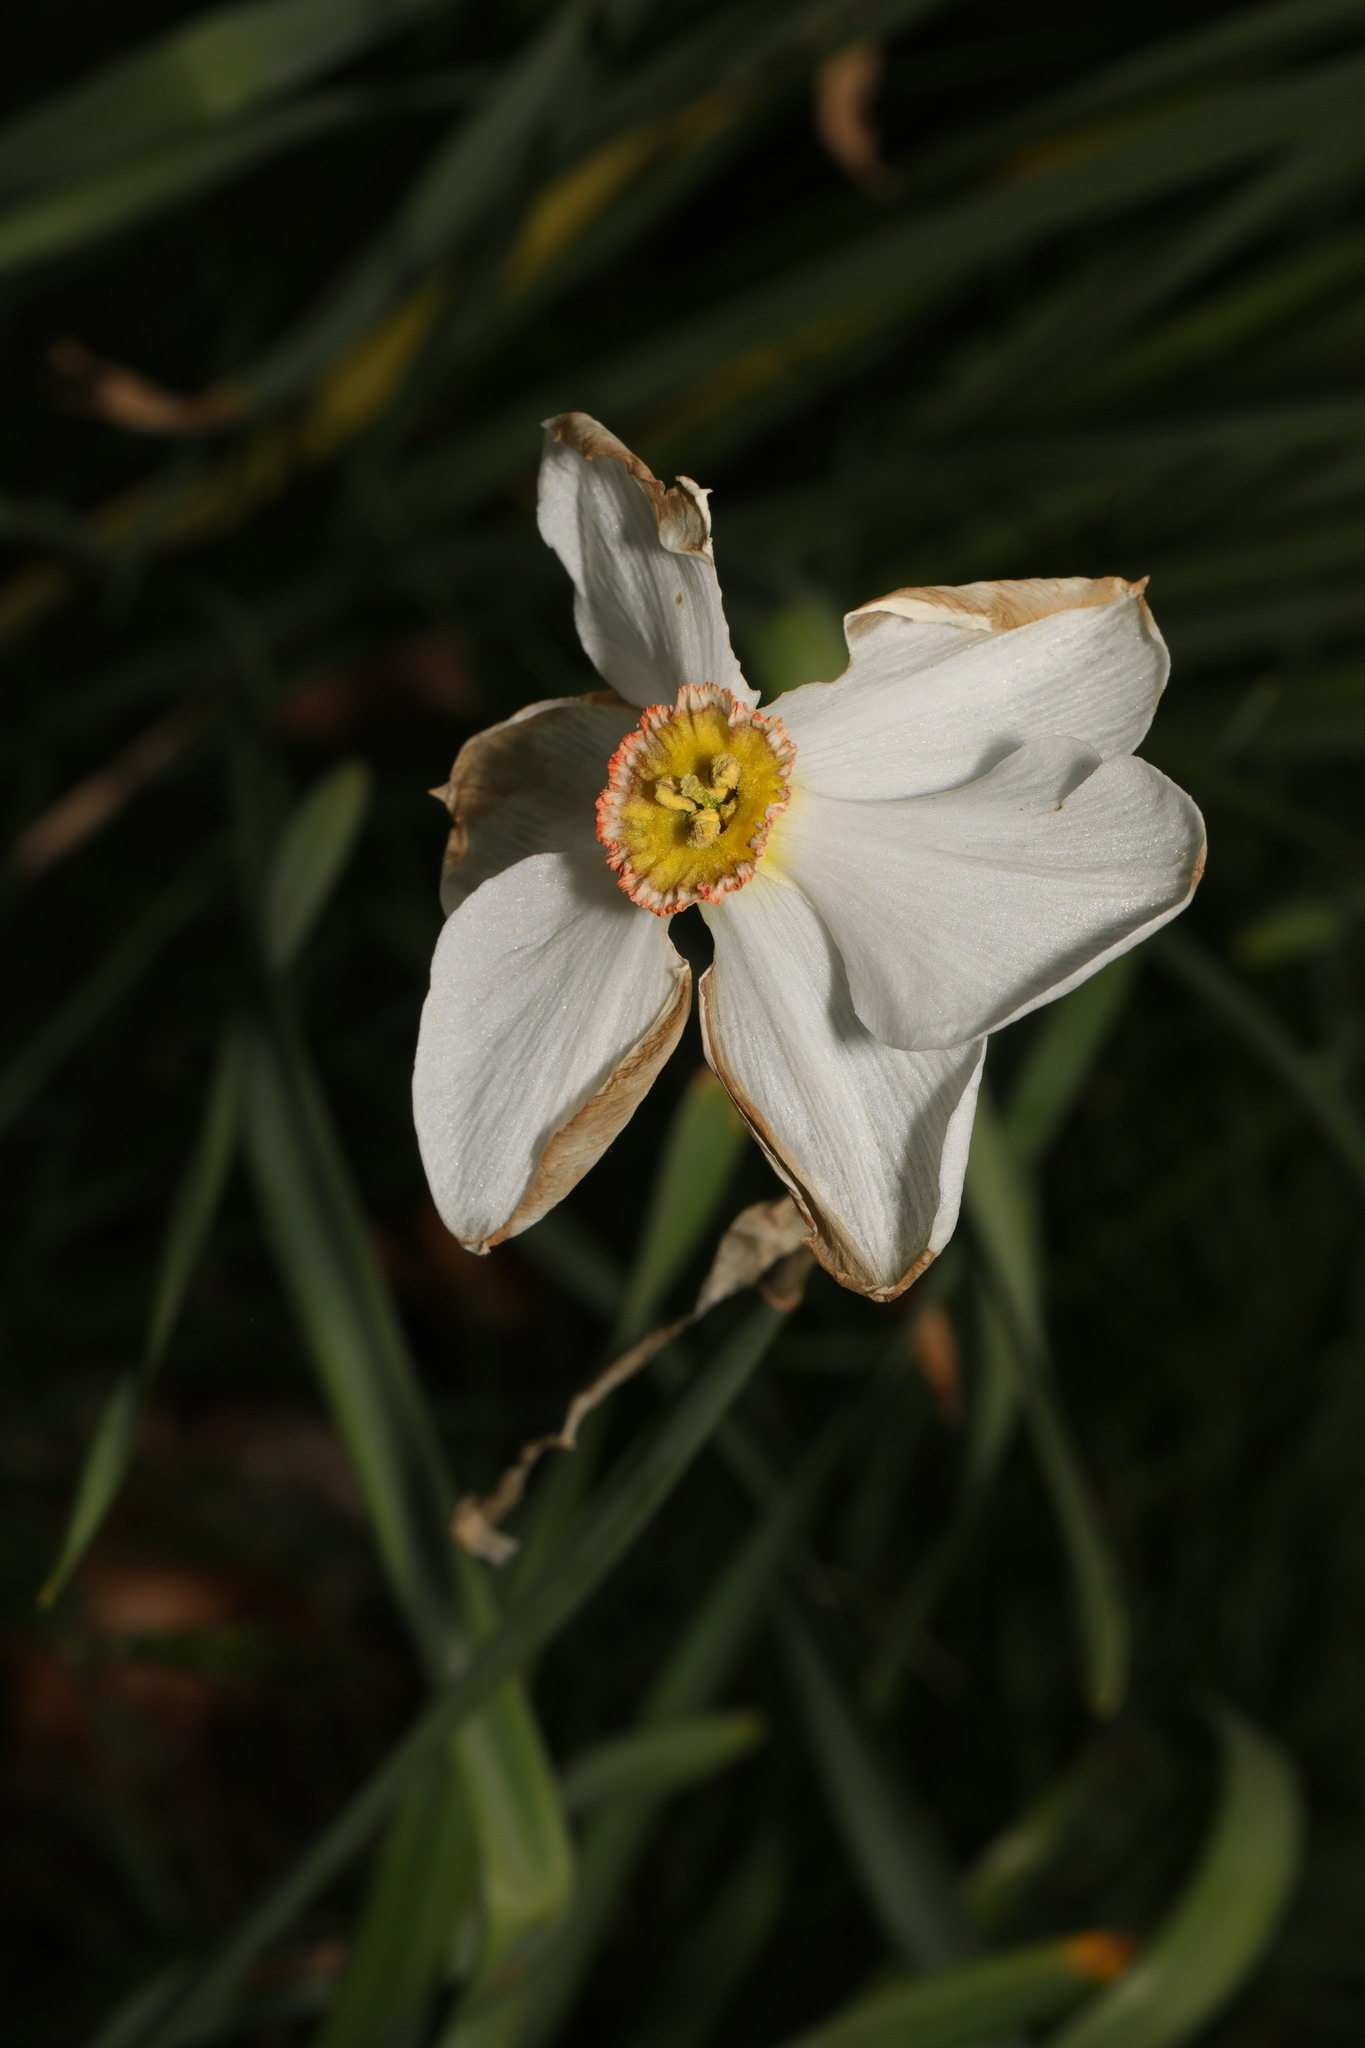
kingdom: Plantae
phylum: Tracheophyta
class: Liliopsida
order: Asparagales
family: Amaryllidaceae
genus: Narcissus
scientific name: Narcissus poeticus
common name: Pheasant's-eye daffodil
